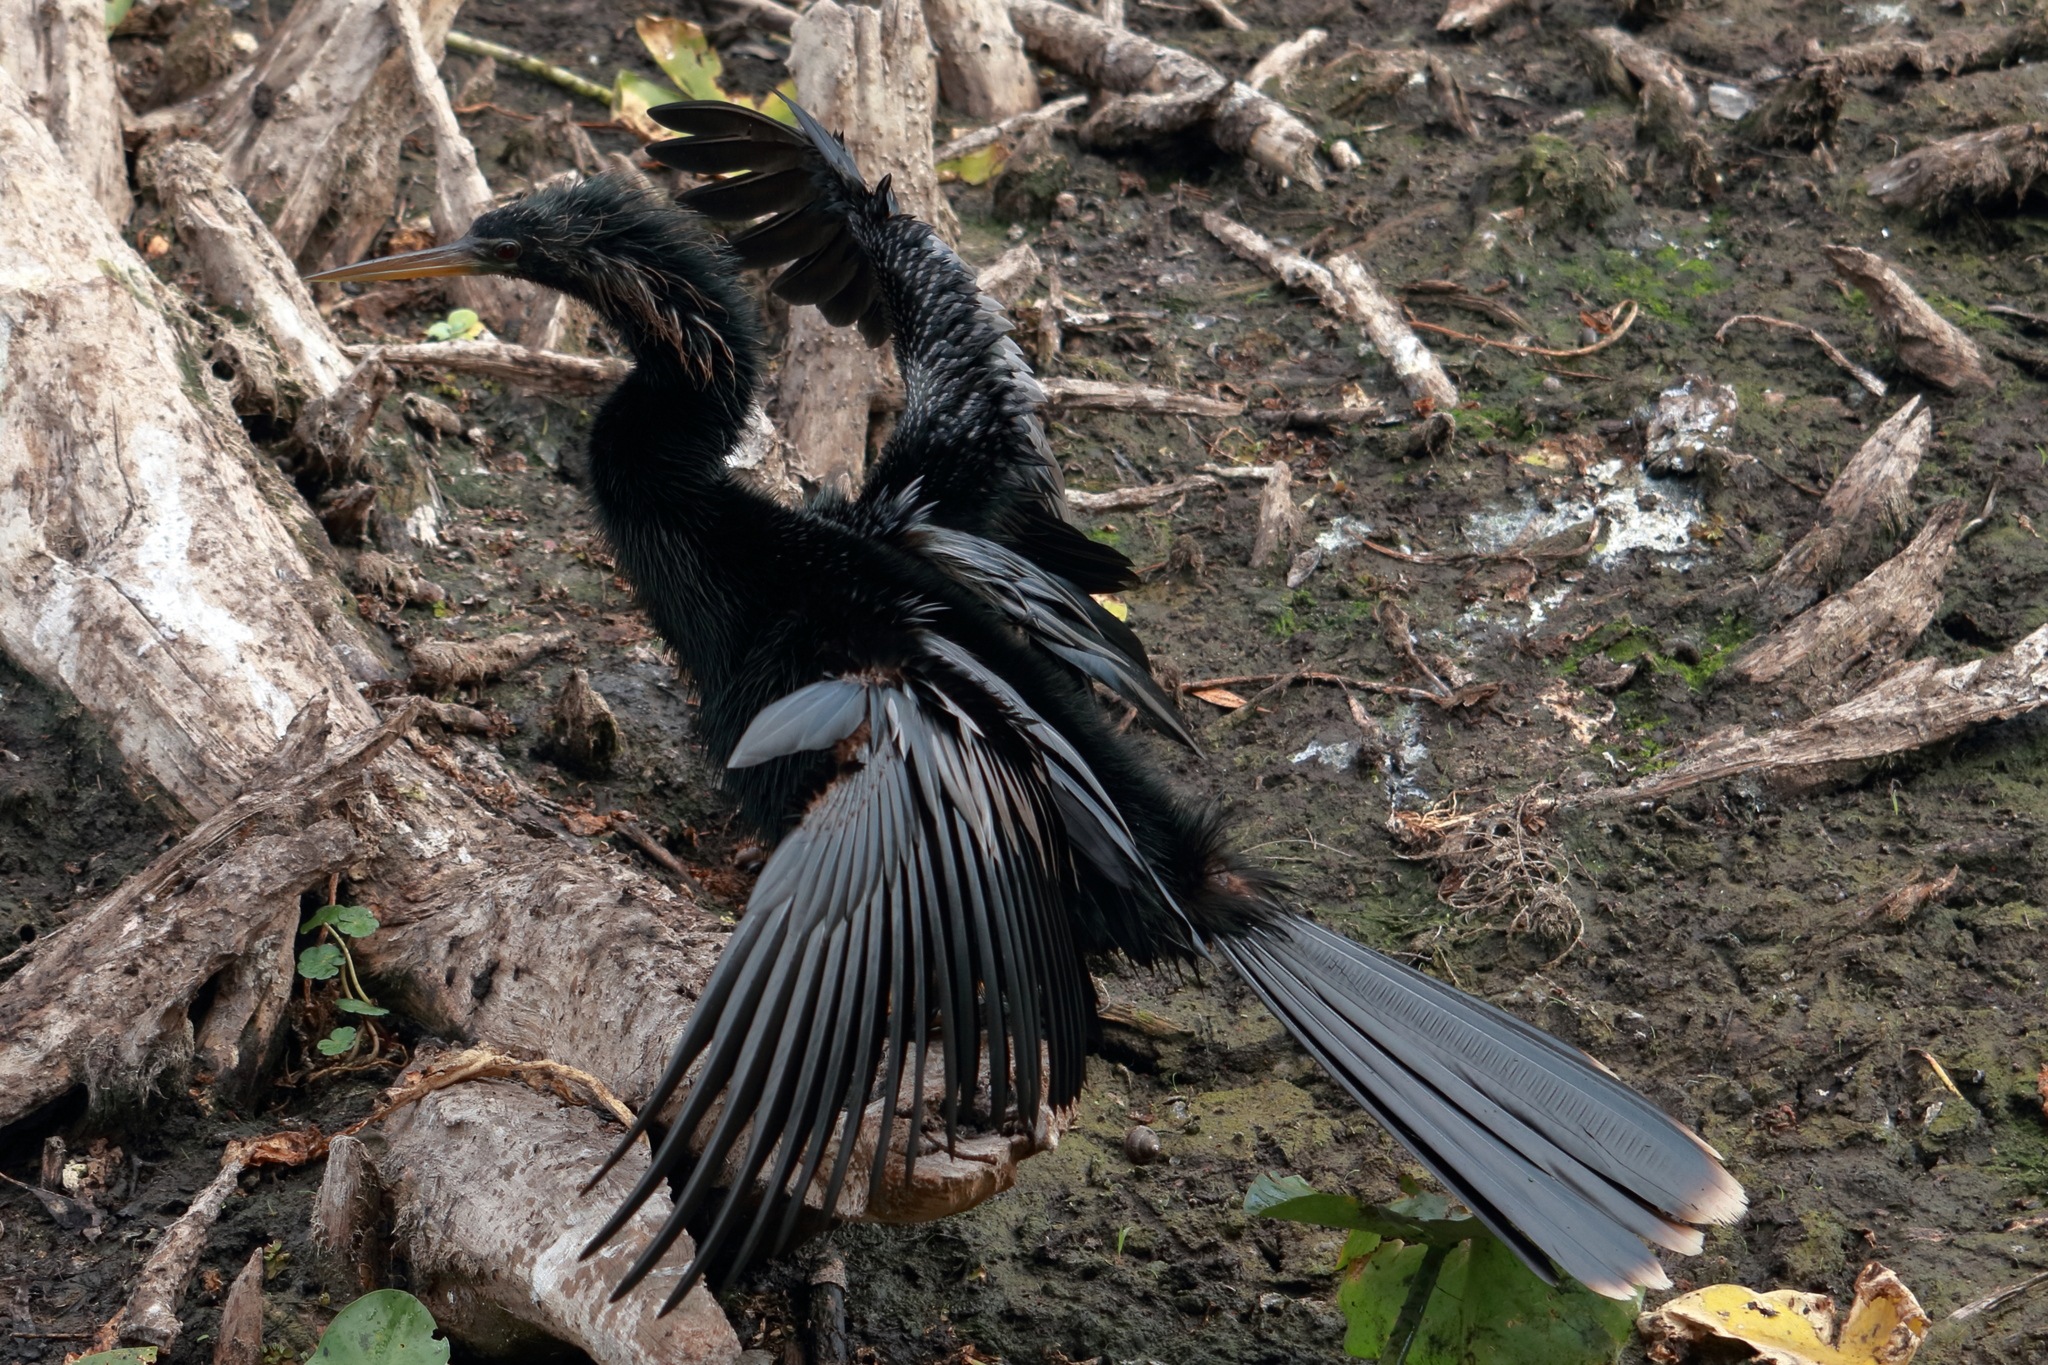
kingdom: Animalia
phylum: Chordata
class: Aves
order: Suliformes
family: Anhingidae
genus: Anhinga
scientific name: Anhinga anhinga
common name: Anhinga
